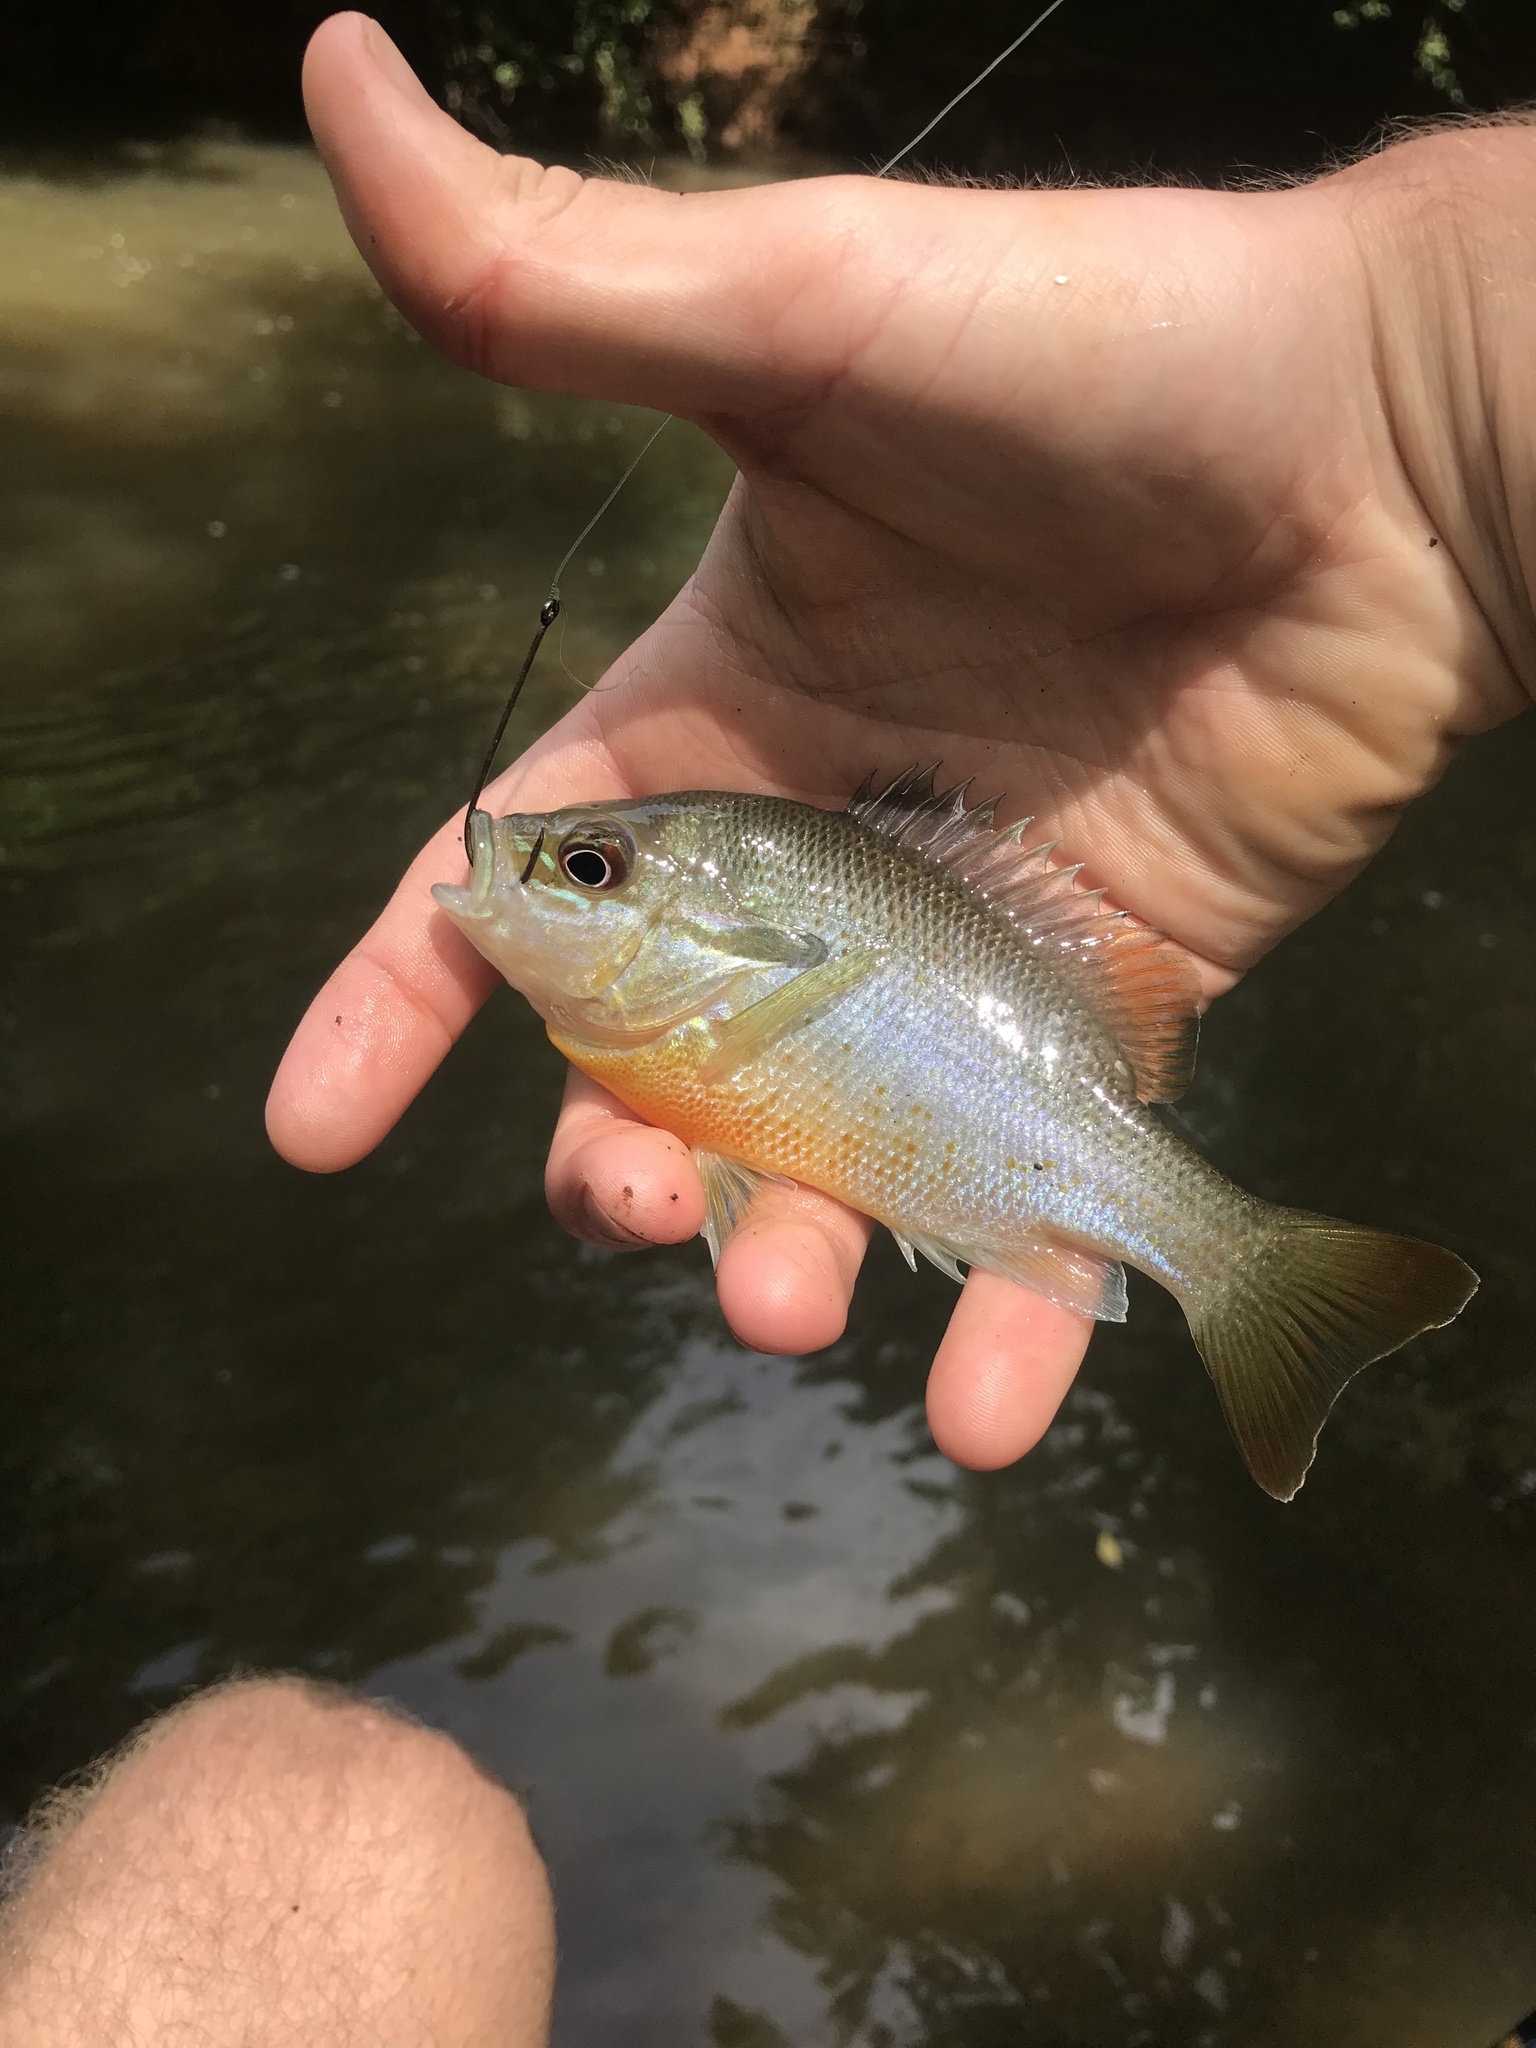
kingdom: Animalia
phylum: Chordata
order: Perciformes
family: Centrarchidae
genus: Lepomis
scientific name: Lepomis auritus
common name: Redbreast sunfish
